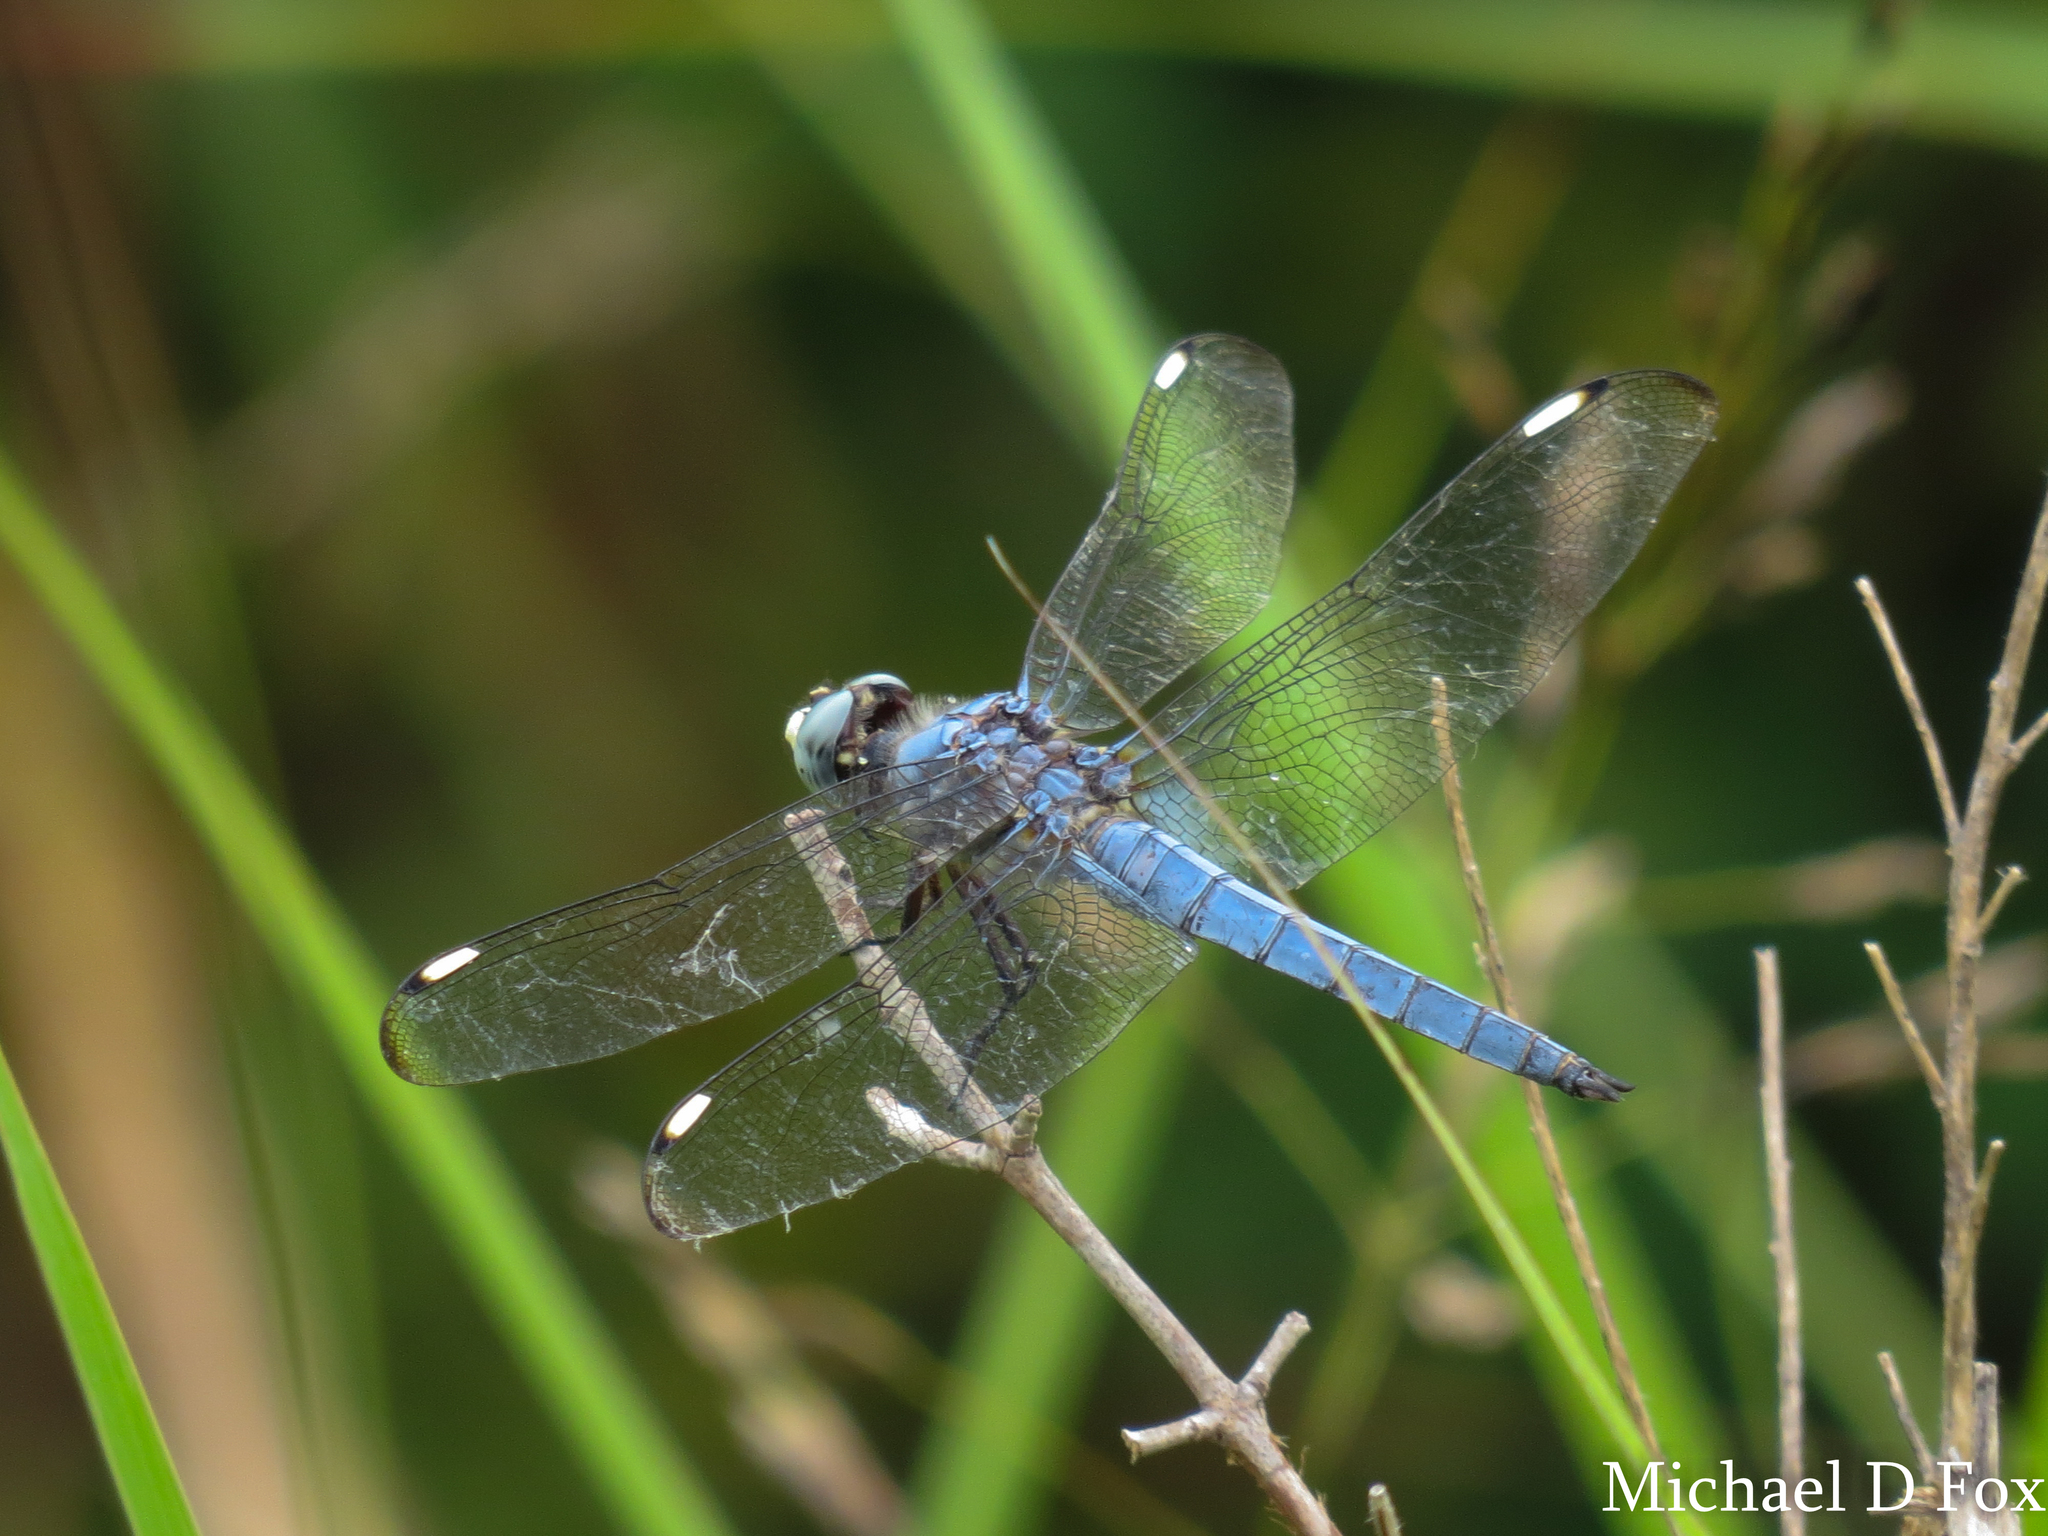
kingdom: Animalia
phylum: Arthropoda
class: Insecta
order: Odonata
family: Libellulidae
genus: Libellula
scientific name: Libellula comanche
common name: Comanche skimmer
